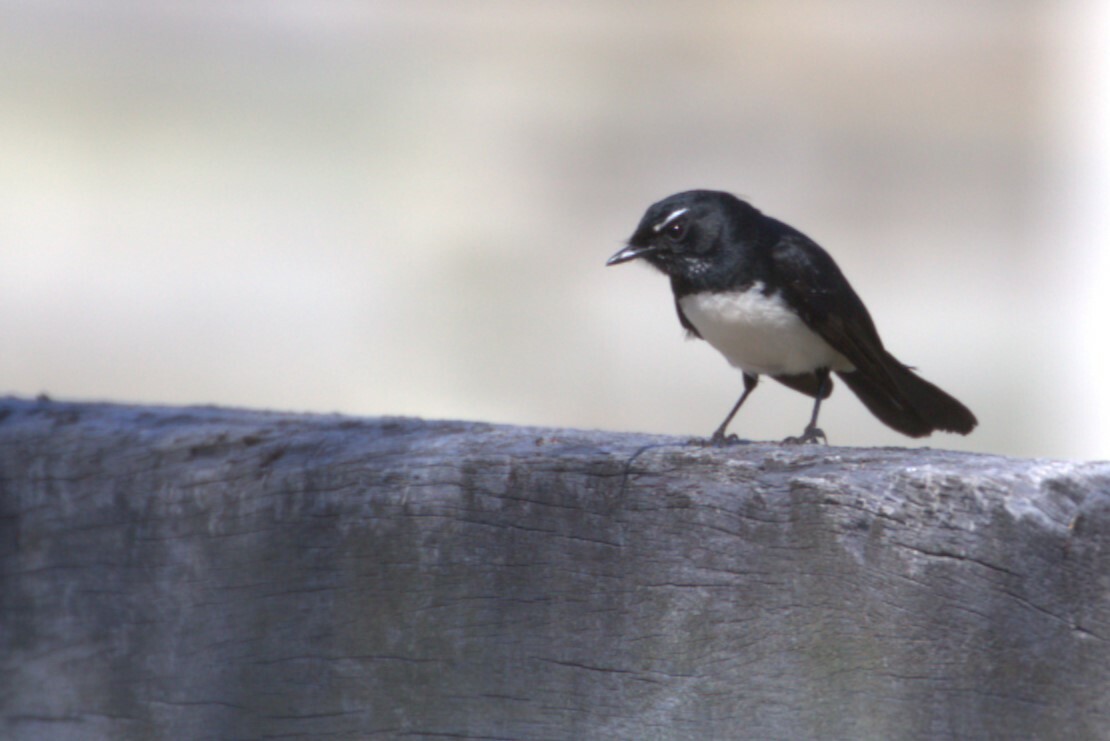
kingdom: Animalia
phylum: Chordata
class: Aves
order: Passeriformes
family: Rhipiduridae
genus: Rhipidura
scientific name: Rhipidura leucophrys
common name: Willie wagtail
